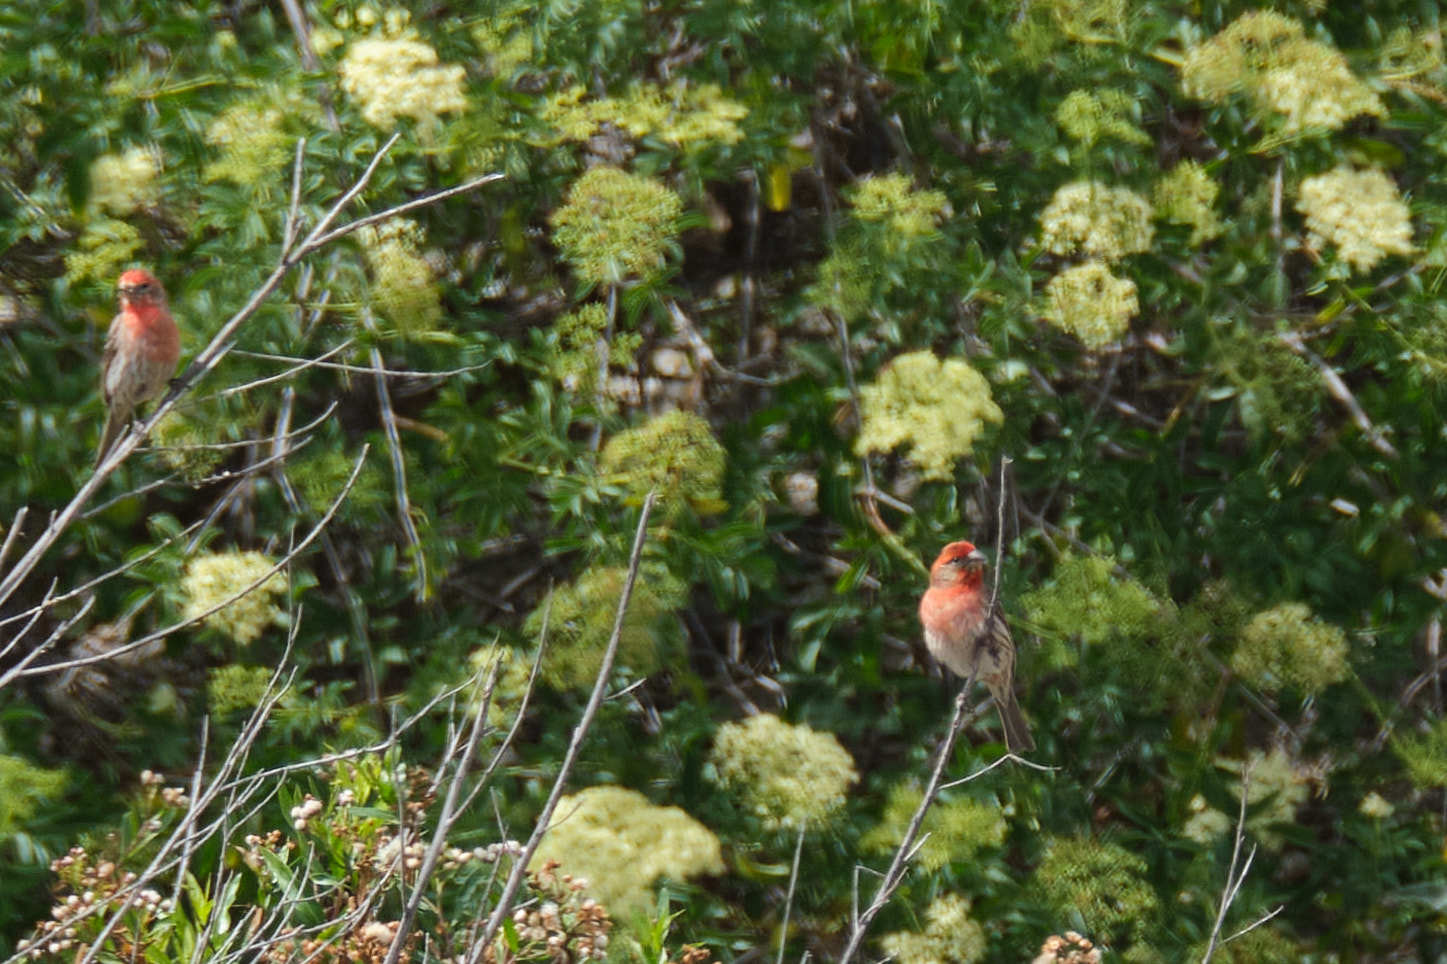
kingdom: Animalia
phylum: Chordata
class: Aves
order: Passeriformes
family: Fringillidae
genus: Haemorhous
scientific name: Haemorhous mexicanus
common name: House finch
